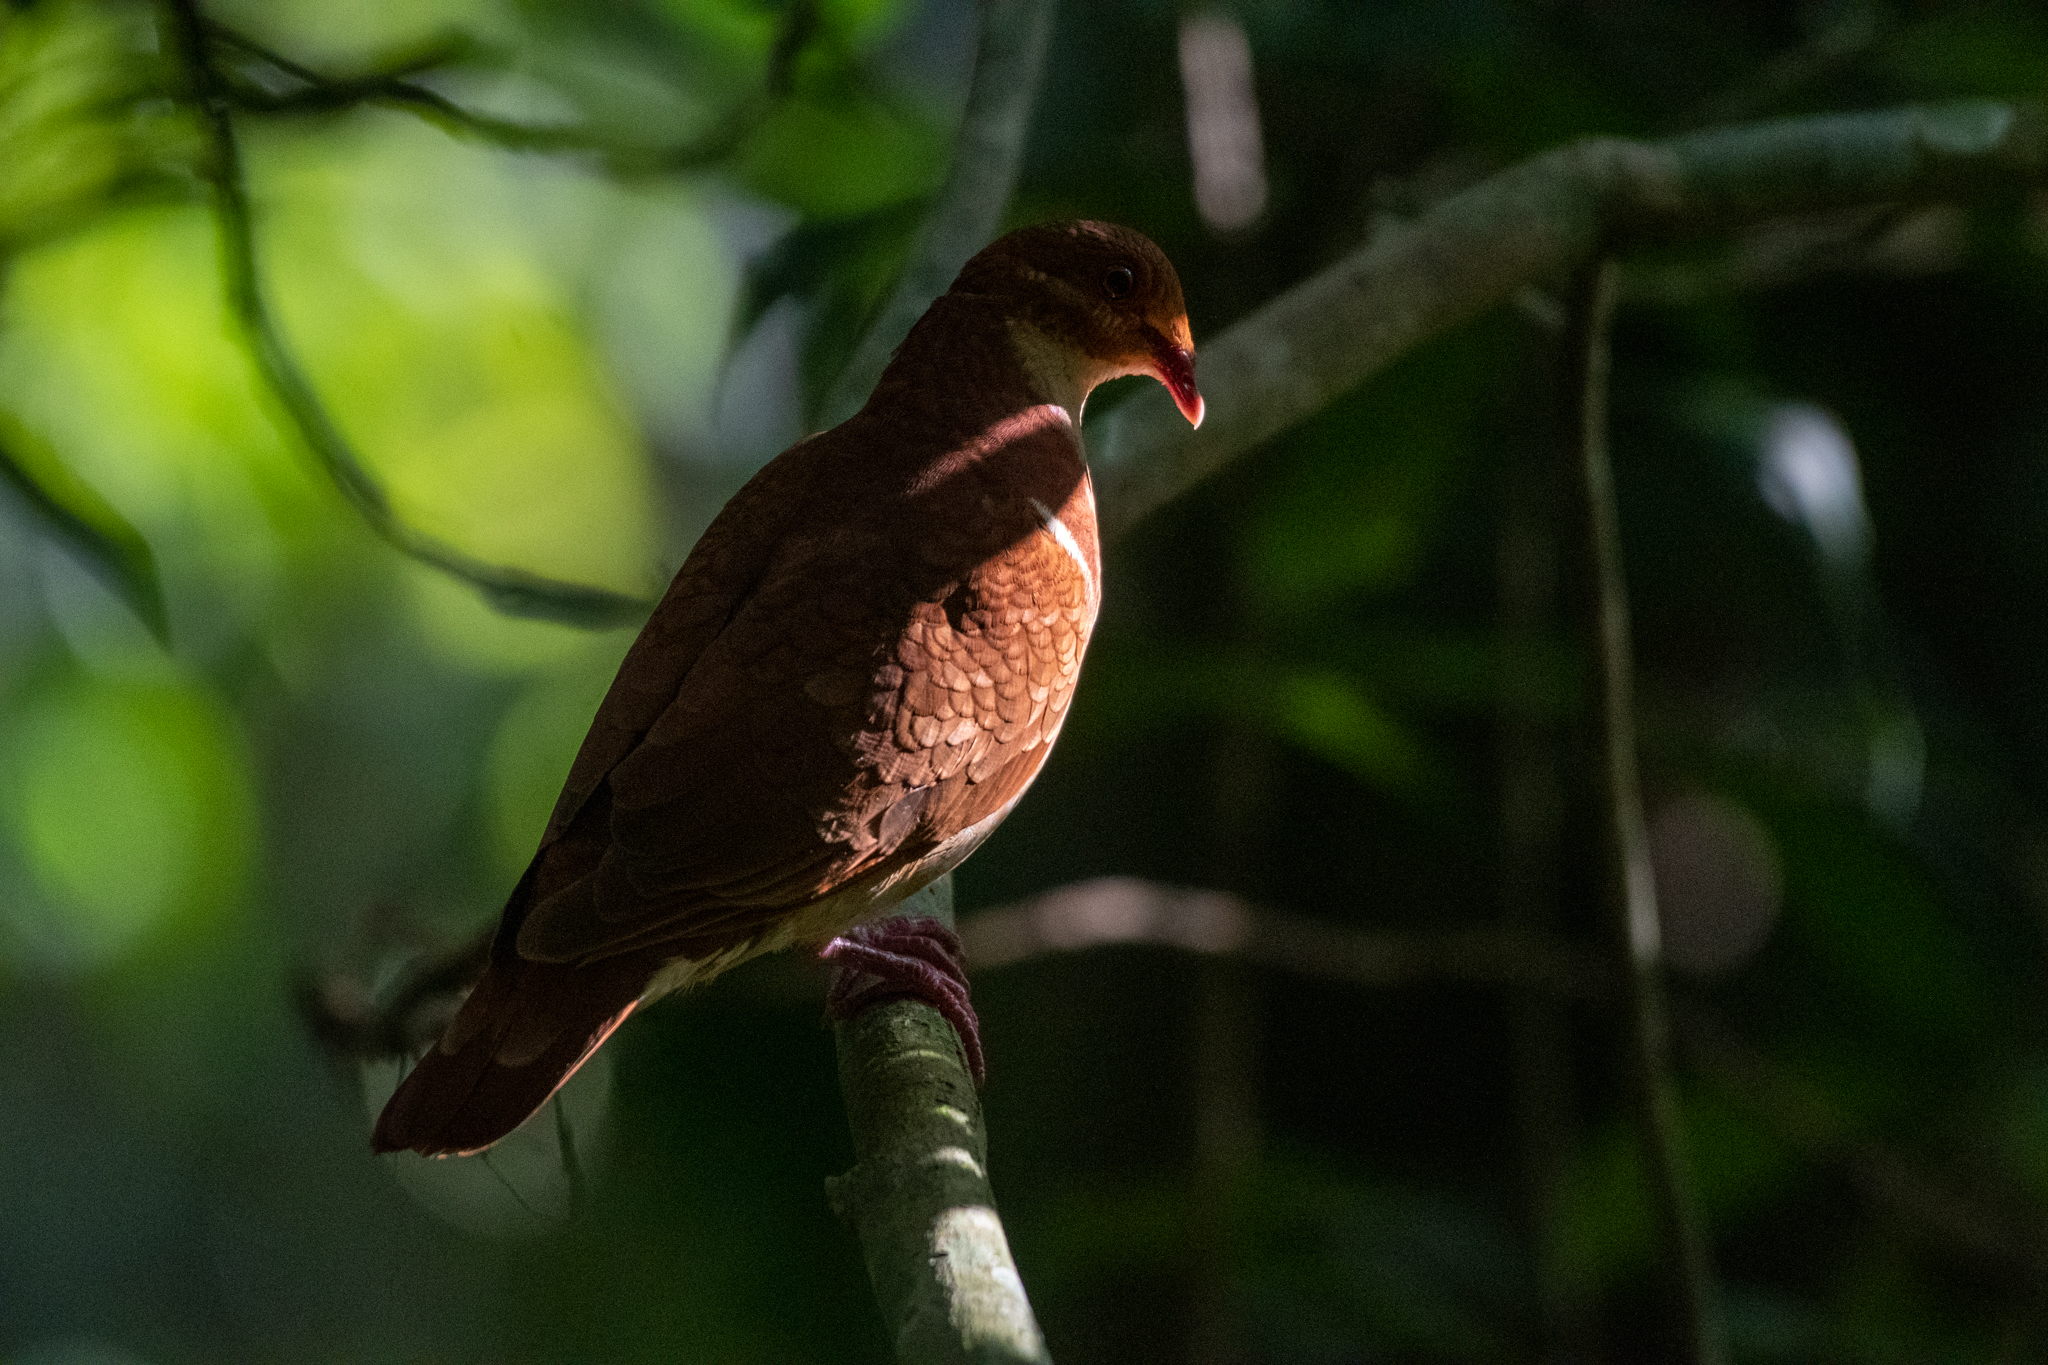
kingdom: Animalia
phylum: Chordata
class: Aves
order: Columbiformes
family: Columbidae
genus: Geotrygon
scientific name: Geotrygon montana
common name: Ruddy quail-dove
